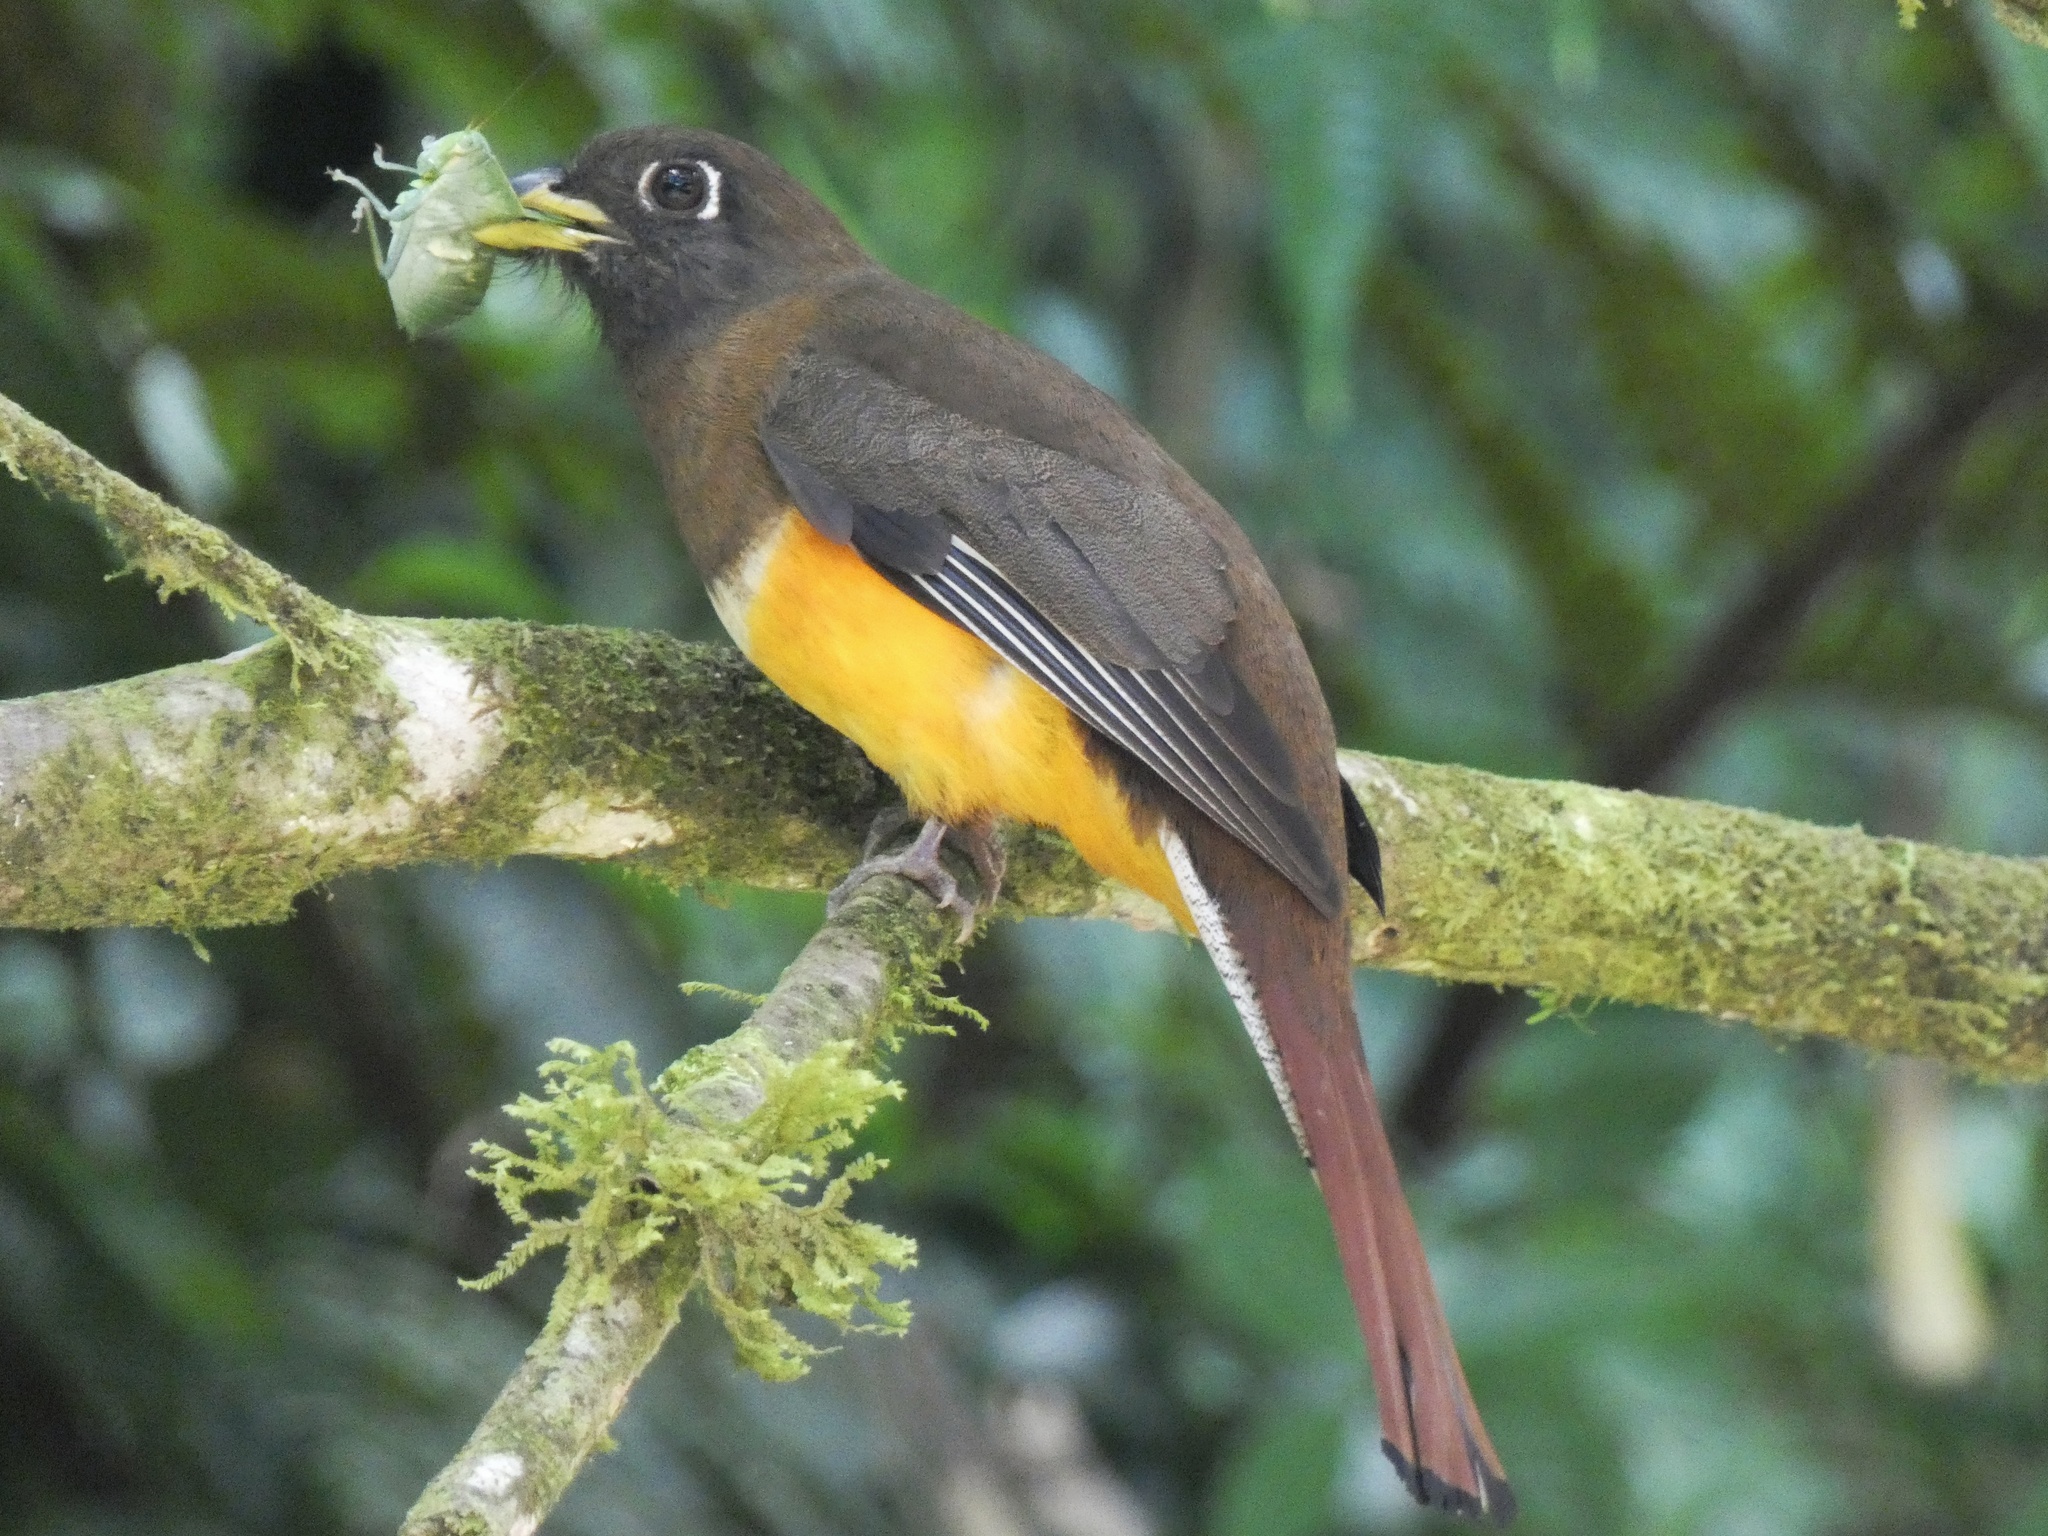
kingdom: Animalia
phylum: Chordata
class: Aves
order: Trogoniformes
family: Trogonidae
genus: Trogon
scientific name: Trogon rufus
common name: Black-throated trogon
